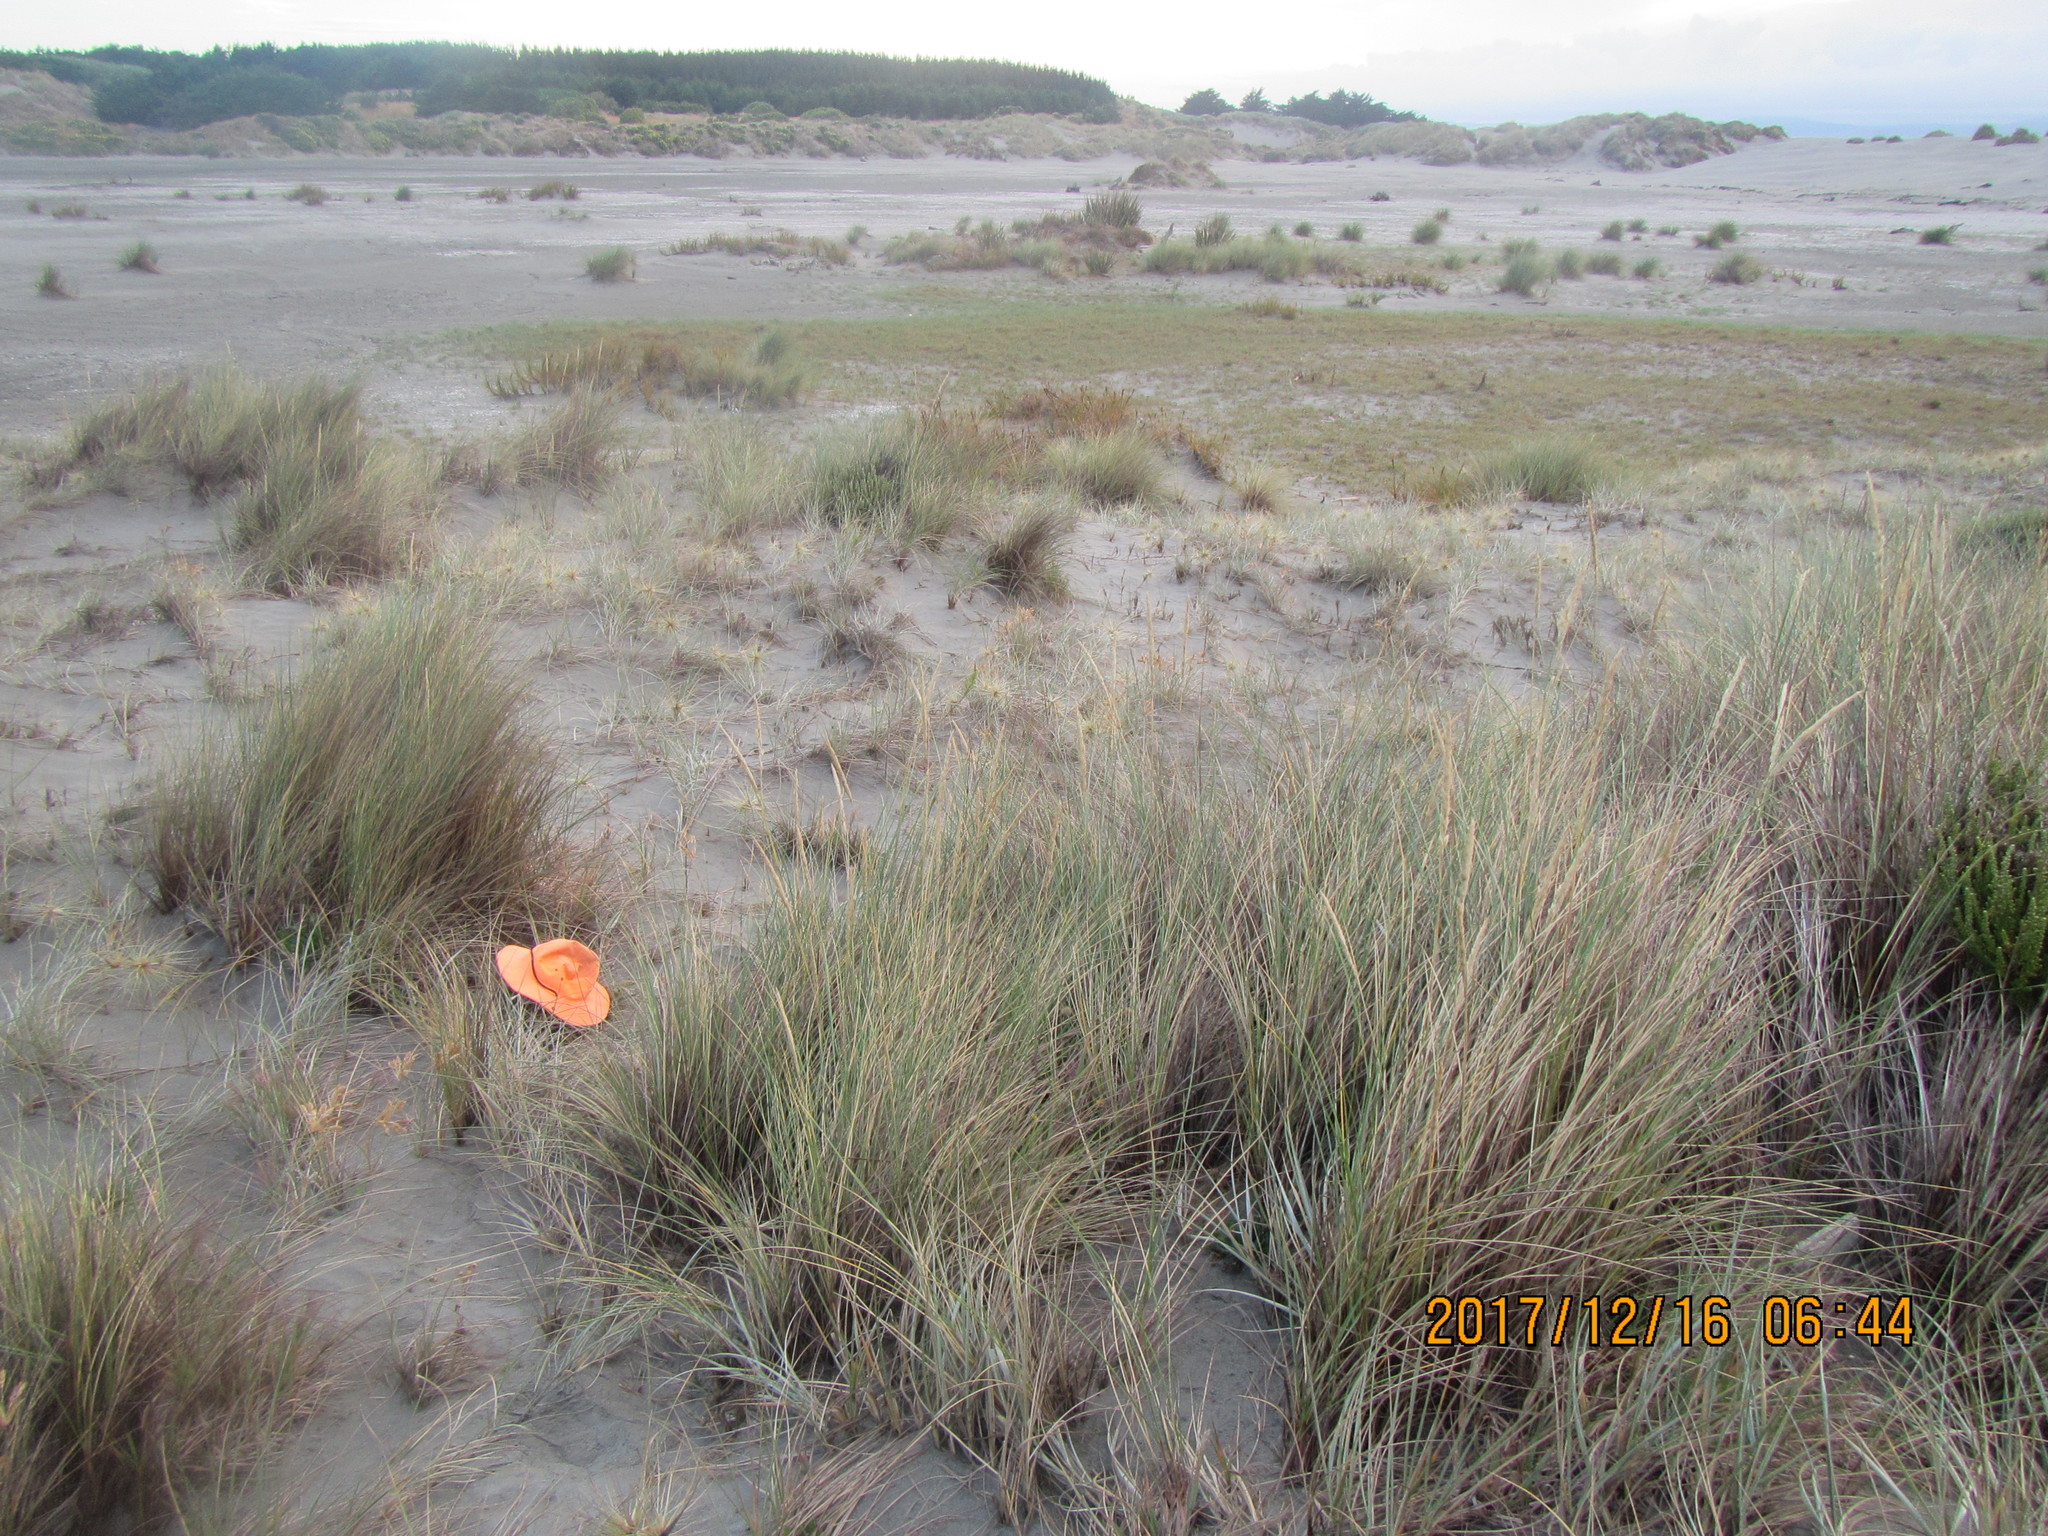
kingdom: Animalia
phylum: Arthropoda
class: Arachnida
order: Araneae
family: Lycosidae
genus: Anoteropsis
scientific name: Anoteropsis litoralis
